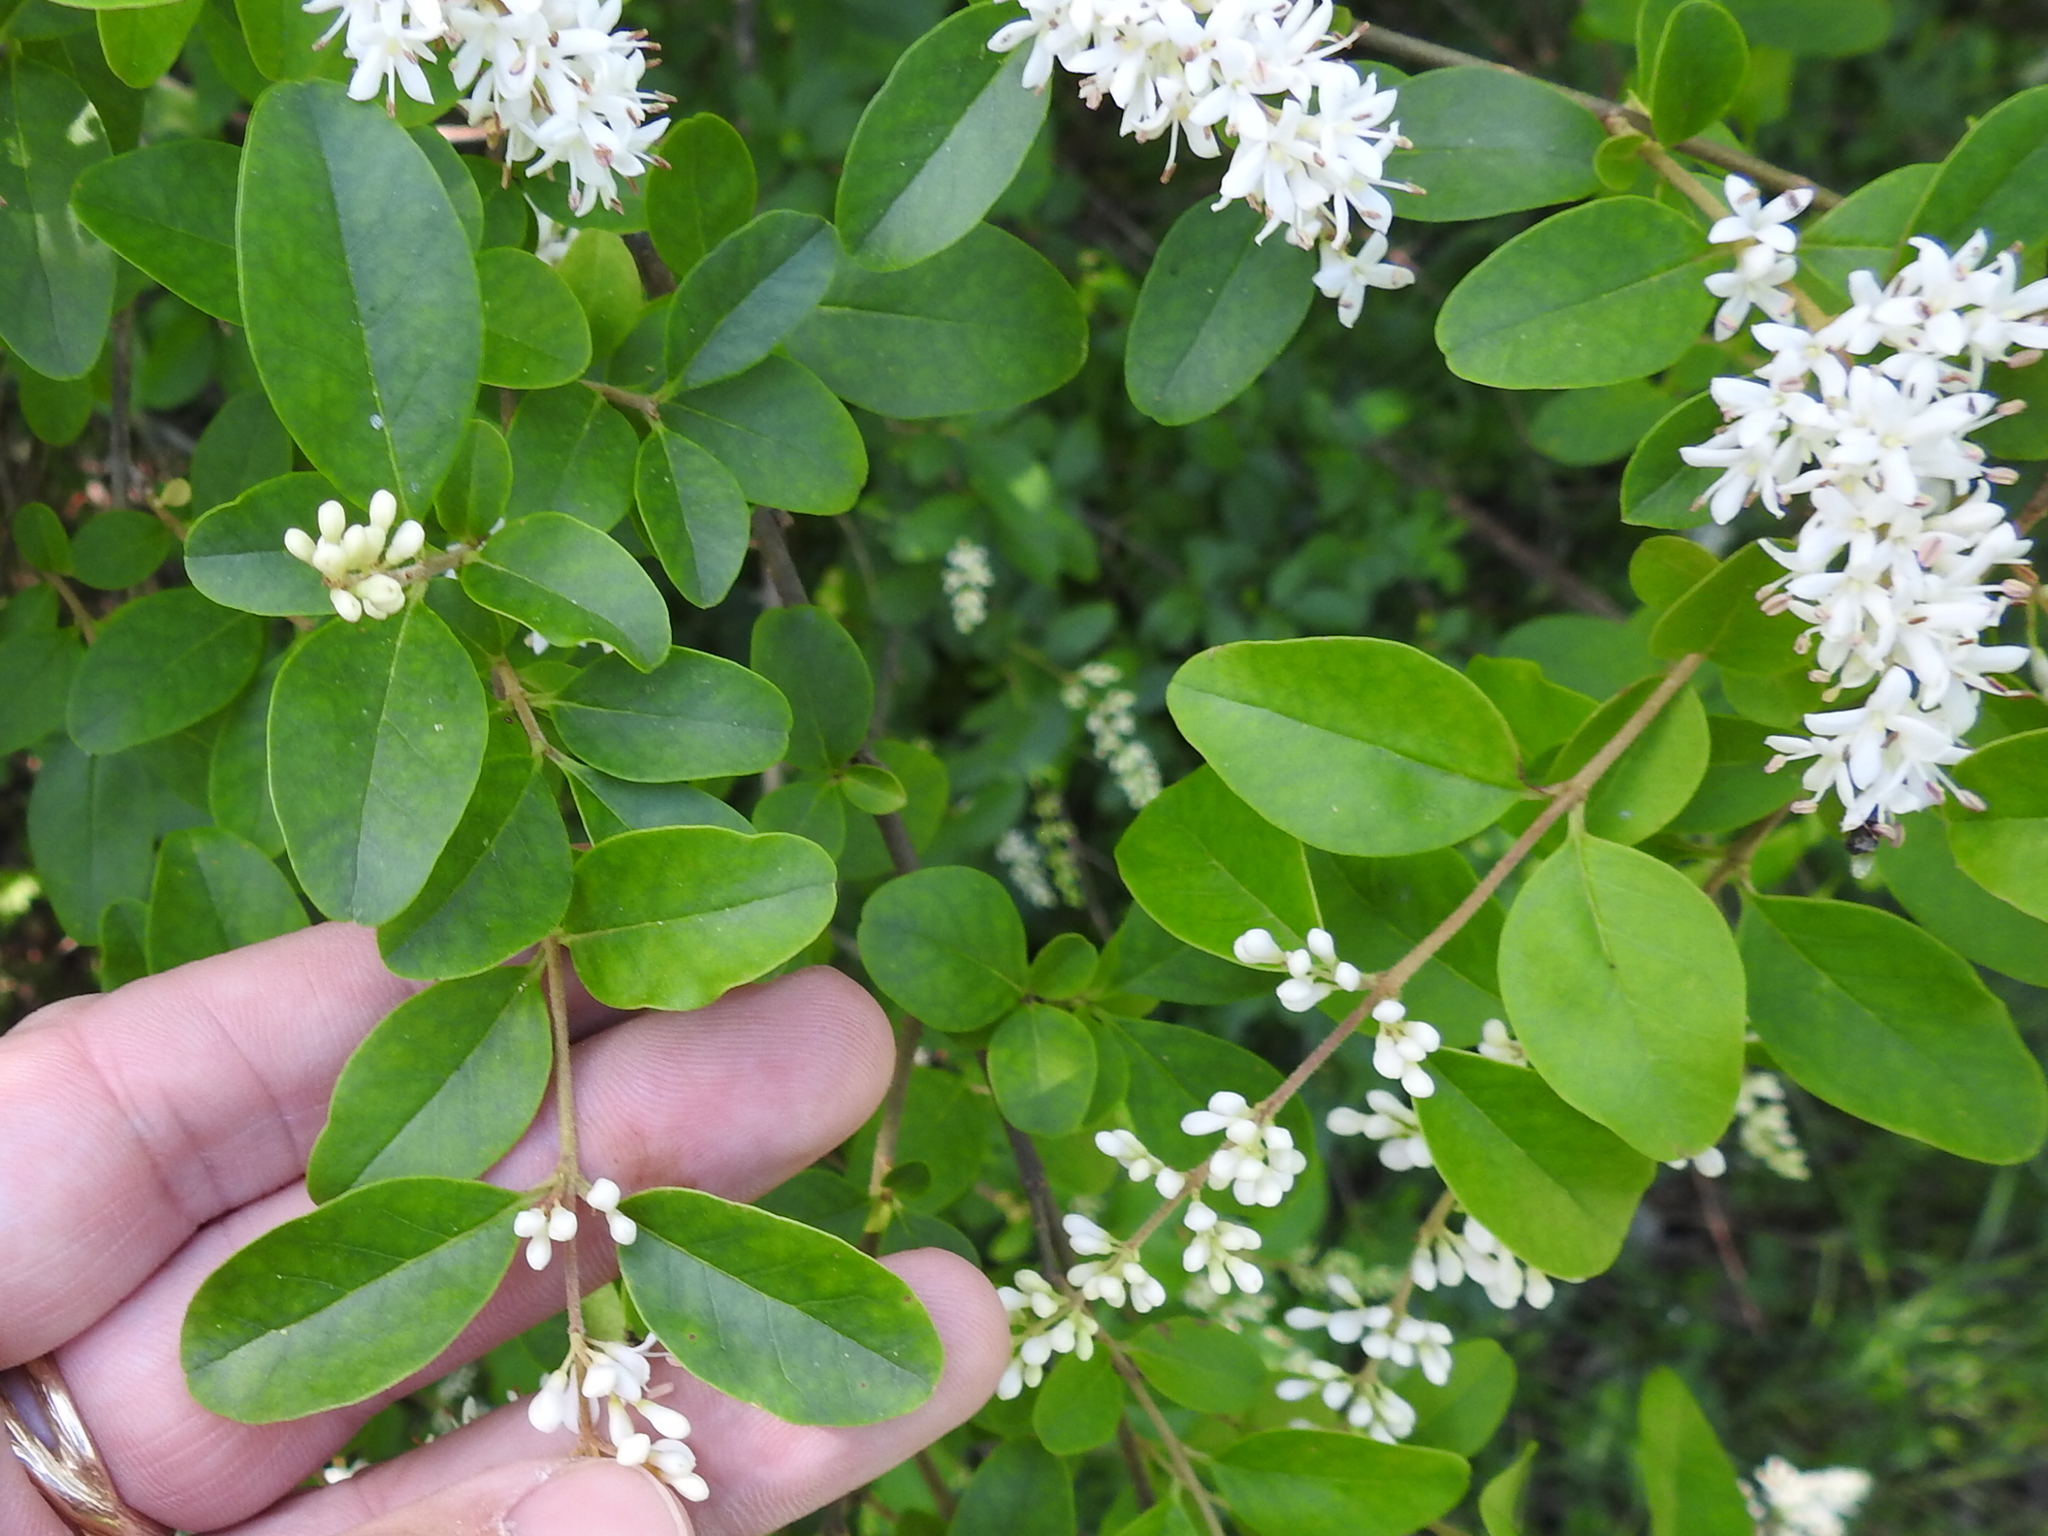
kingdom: Plantae
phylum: Tracheophyta
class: Magnoliopsida
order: Lamiales
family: Oleaceae
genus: Ligustrum
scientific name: Ligustrum sinense
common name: Chinese privet
